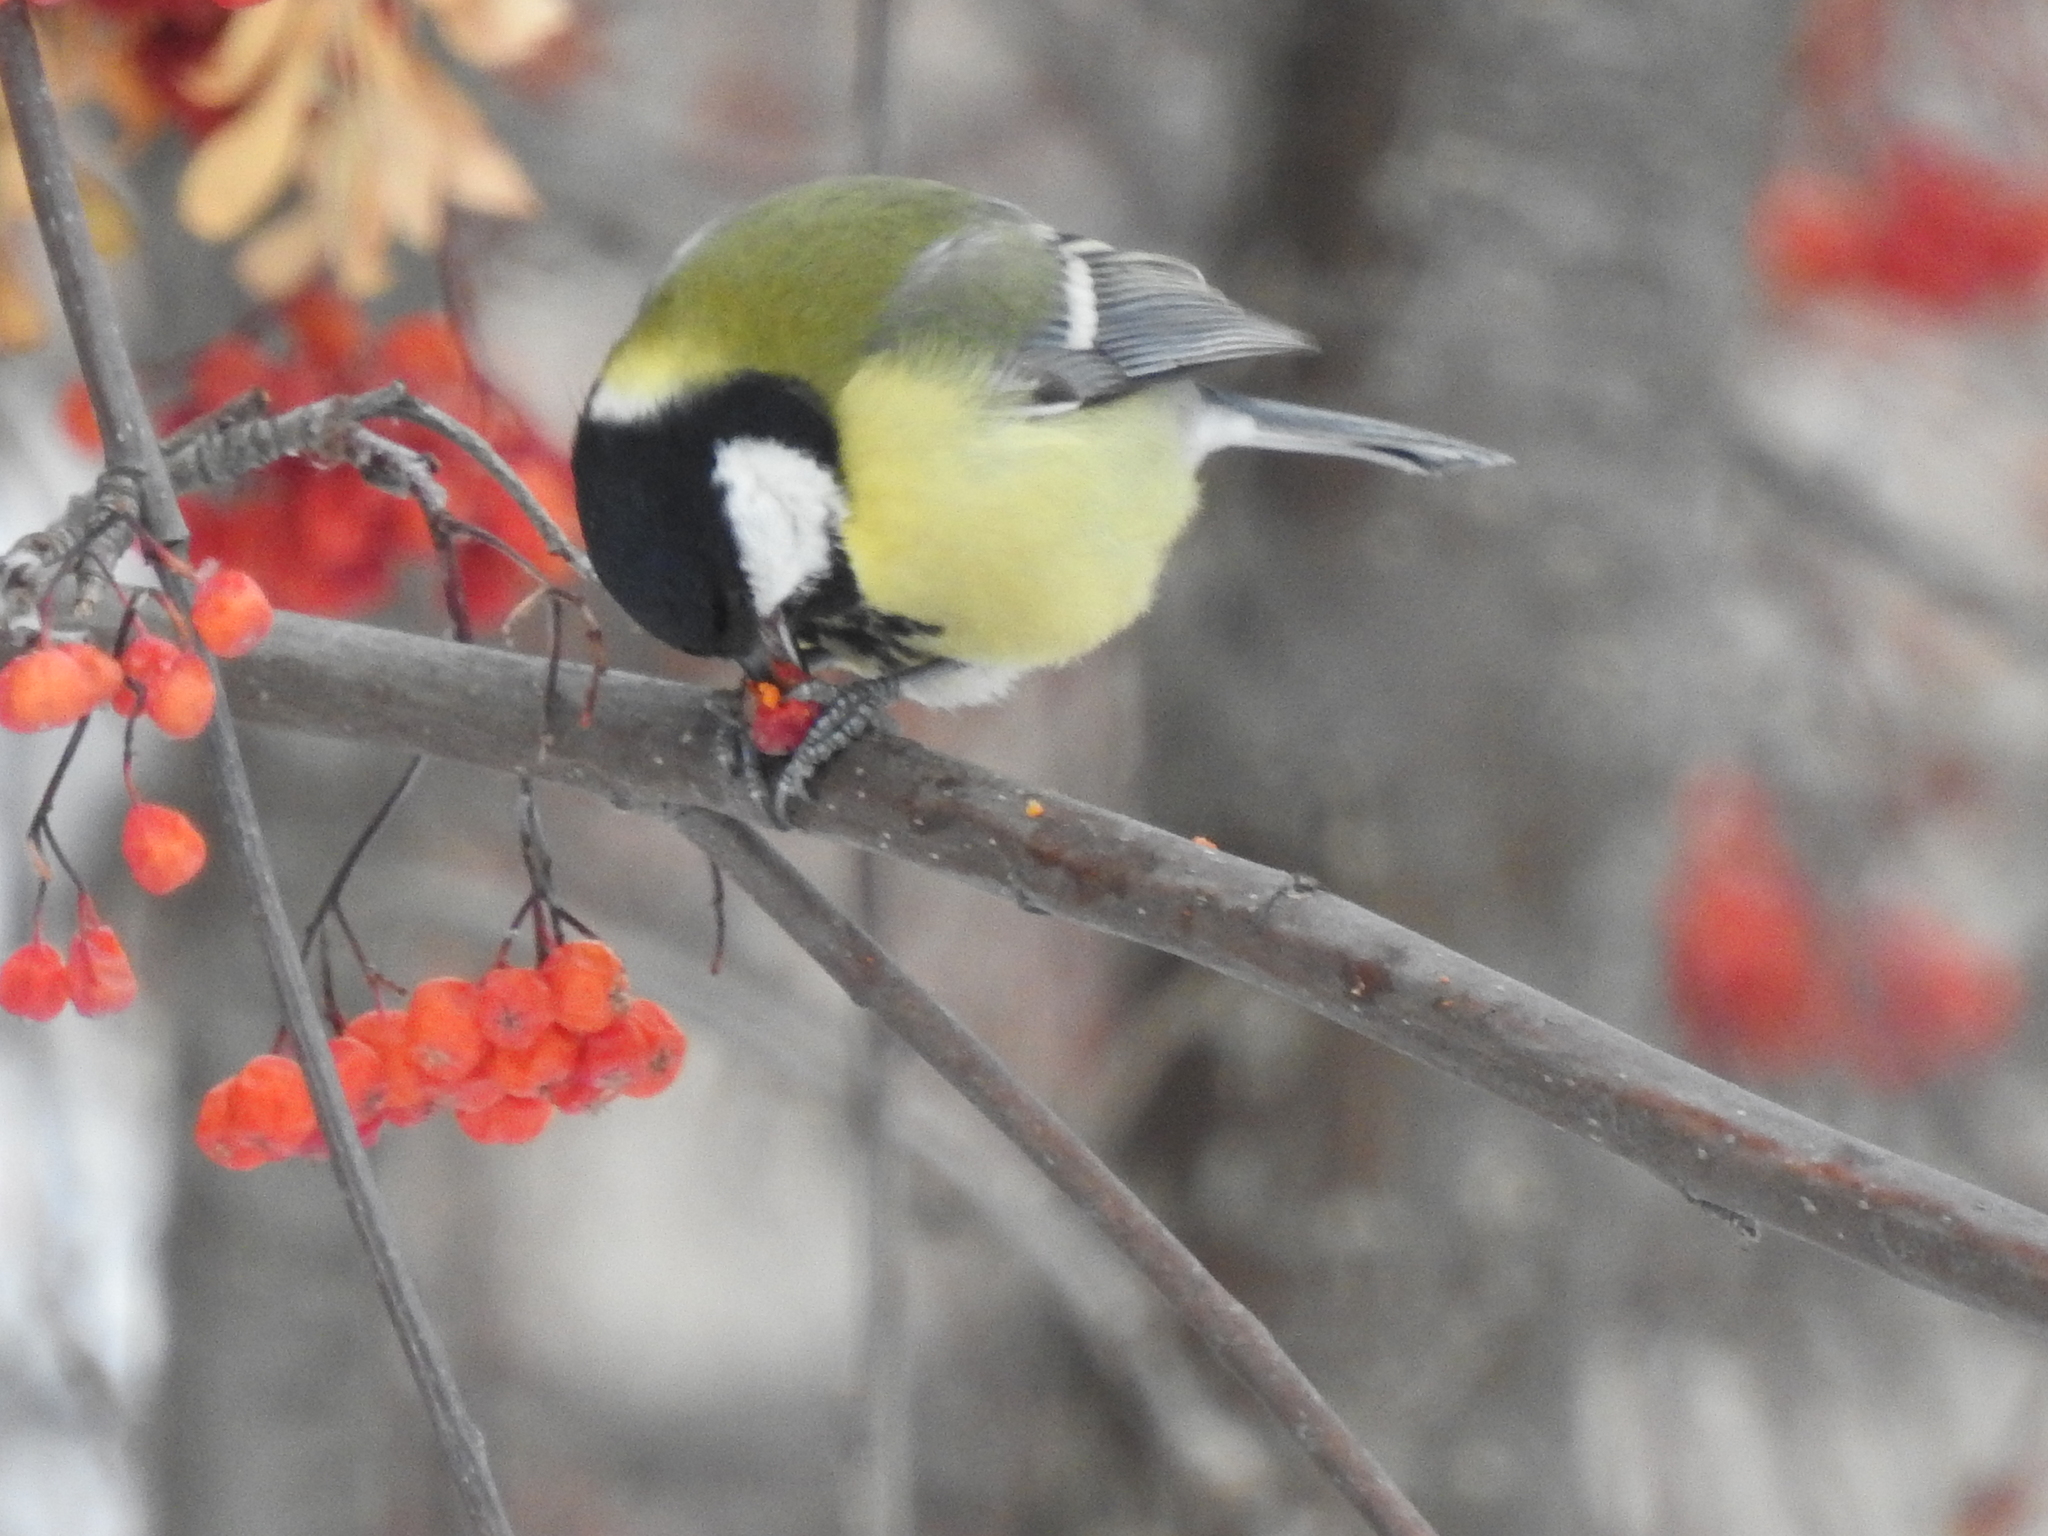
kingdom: Animalia
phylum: Chordata
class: Aves
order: Passeriformes
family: Paridae
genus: Parus
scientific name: Parus major
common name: Great tit
